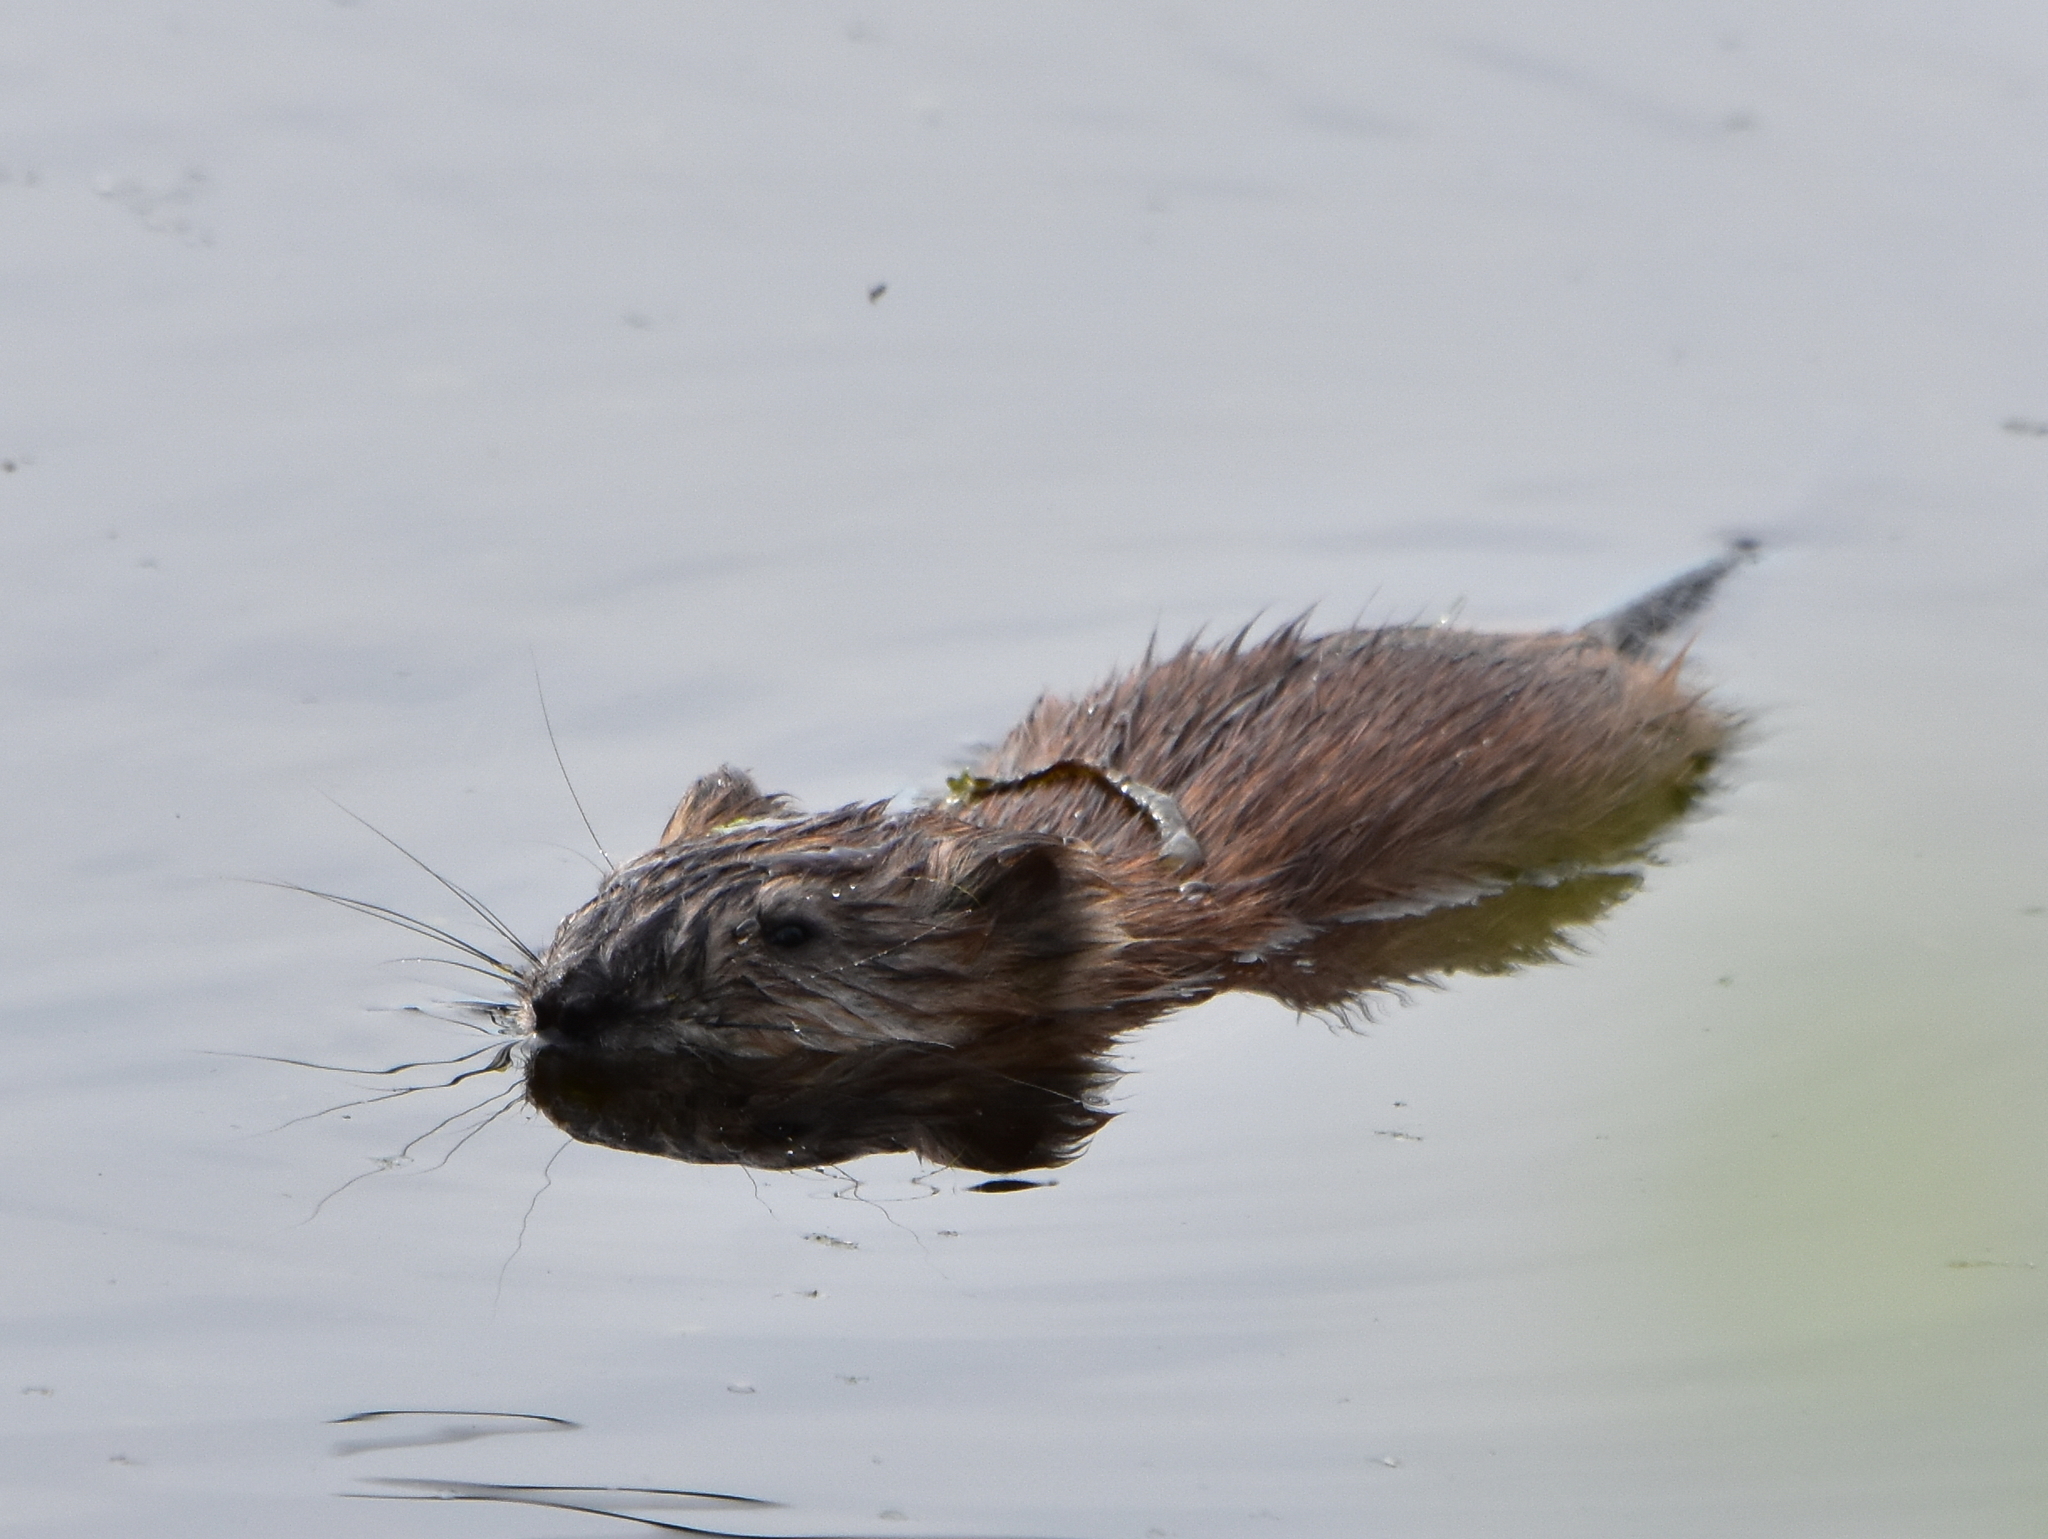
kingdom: Animalia
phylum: Chordata
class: Mammalia
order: Rodentia
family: Cricetidae
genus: Ondatra
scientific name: Ondatra zibethicus
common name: Muskrat
